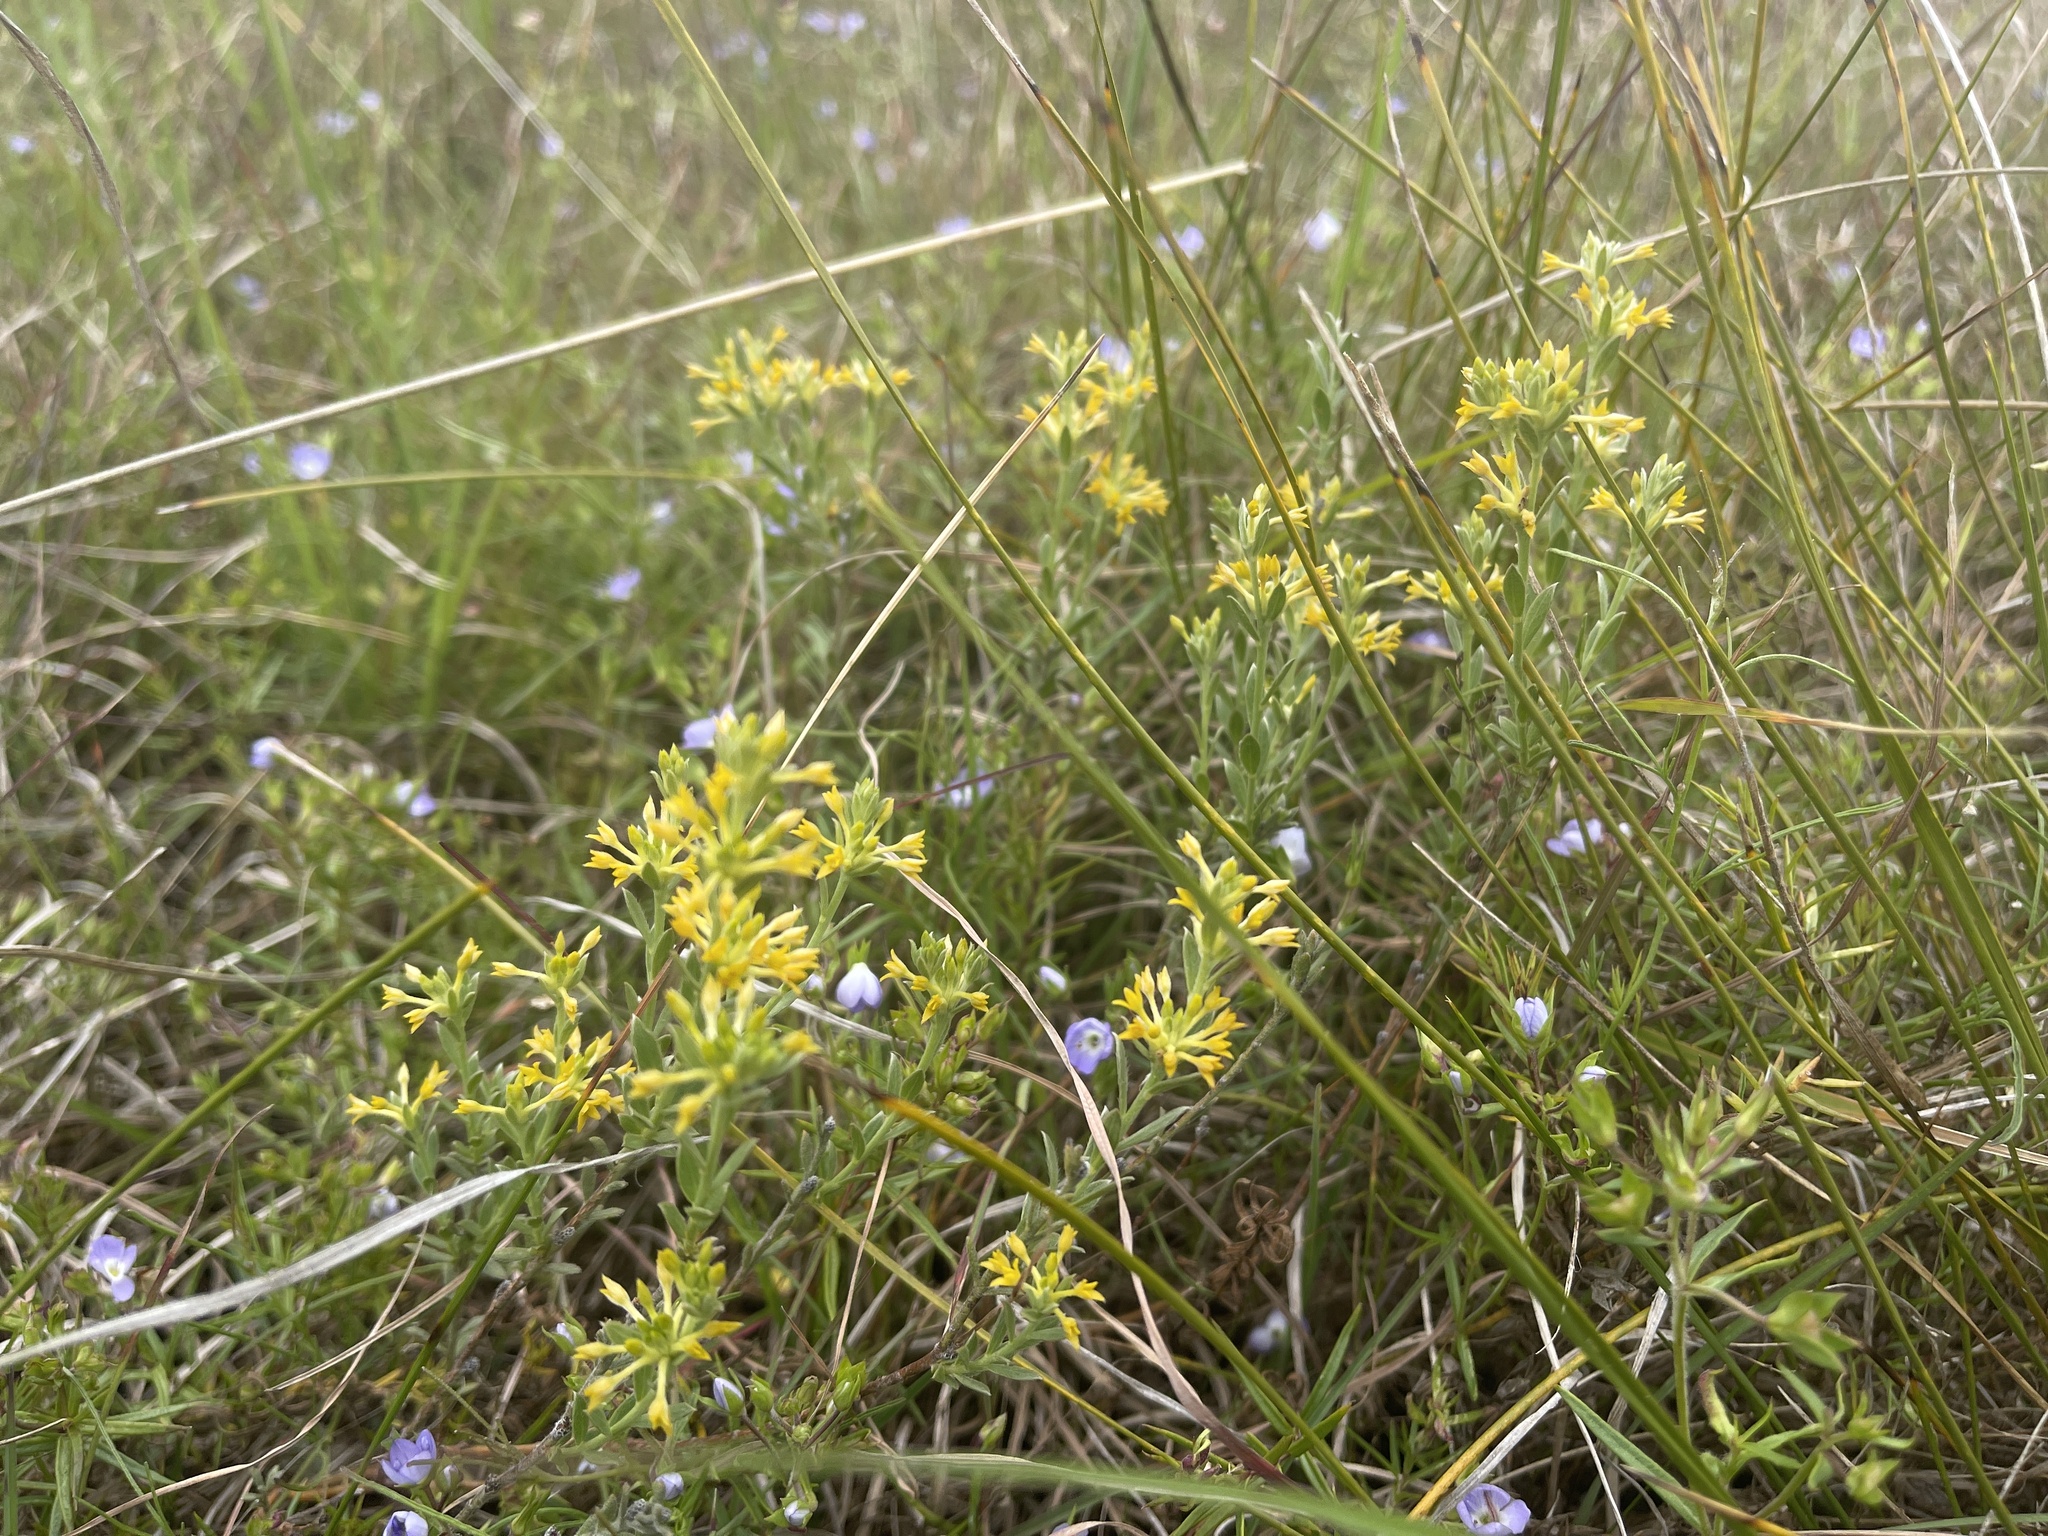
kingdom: Plantae
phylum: Tracheophyta
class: Magnoliopsida
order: Malvales
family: Thymelaeaceae
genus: Pimelea
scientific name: Pimelea curviflora
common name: Curved riceflower
